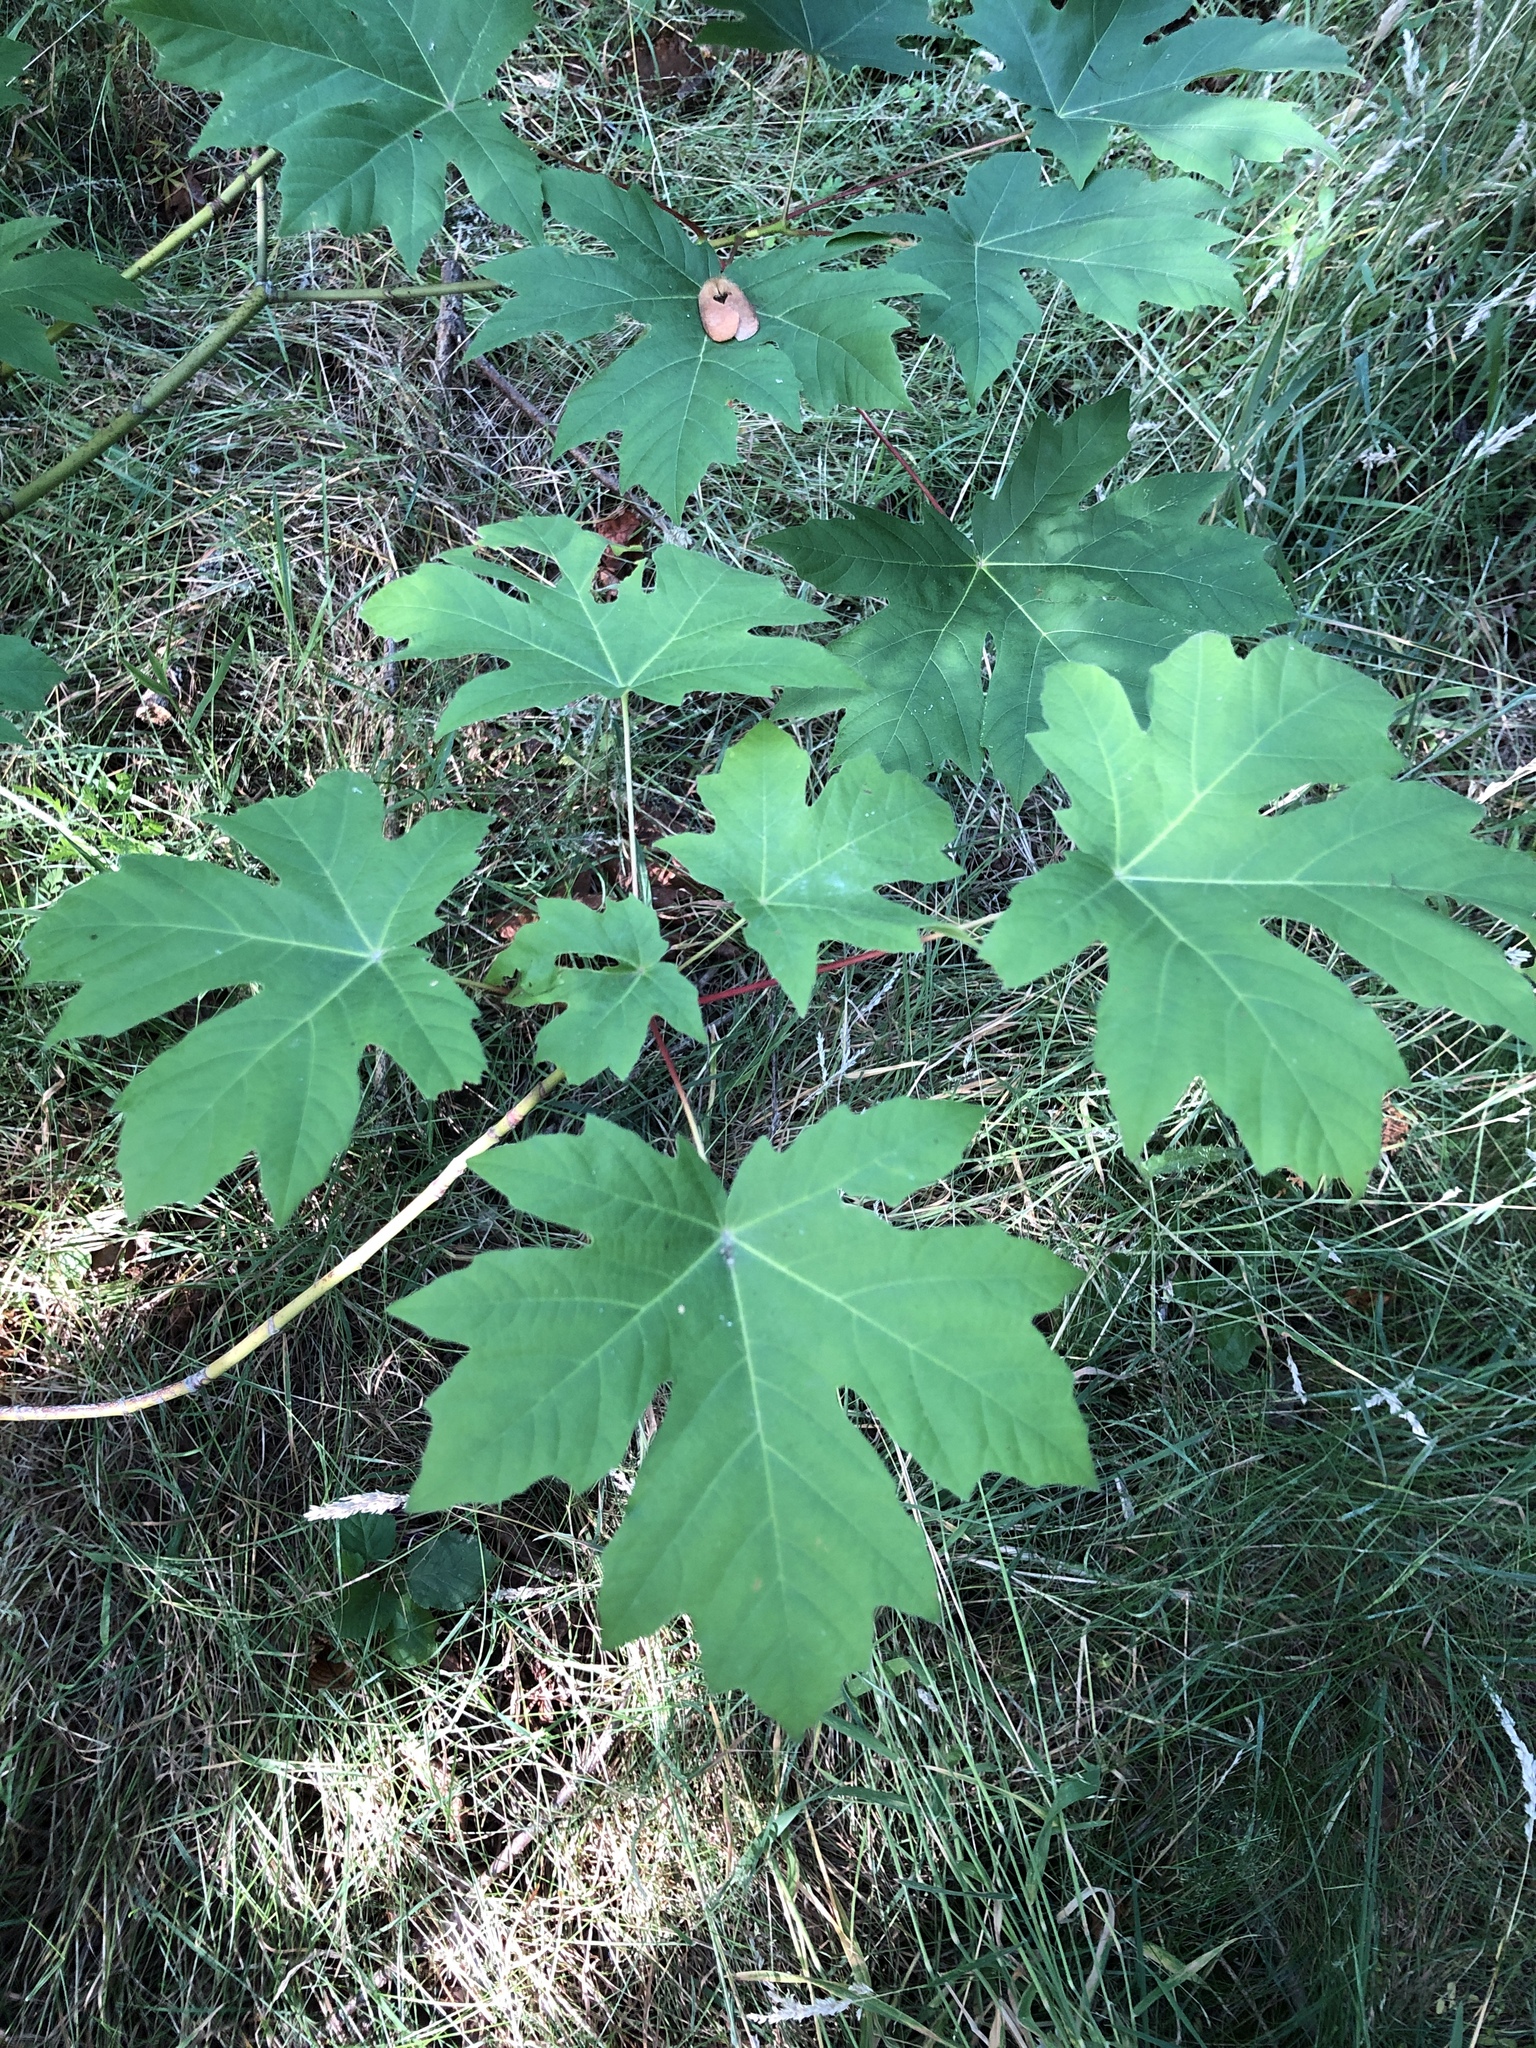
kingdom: Plantae
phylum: Tracheophyta
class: Magnoliopsida
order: Sapindales
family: Sapindaceae
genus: Acer
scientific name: Acer macrophyllum
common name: Oregon maple
